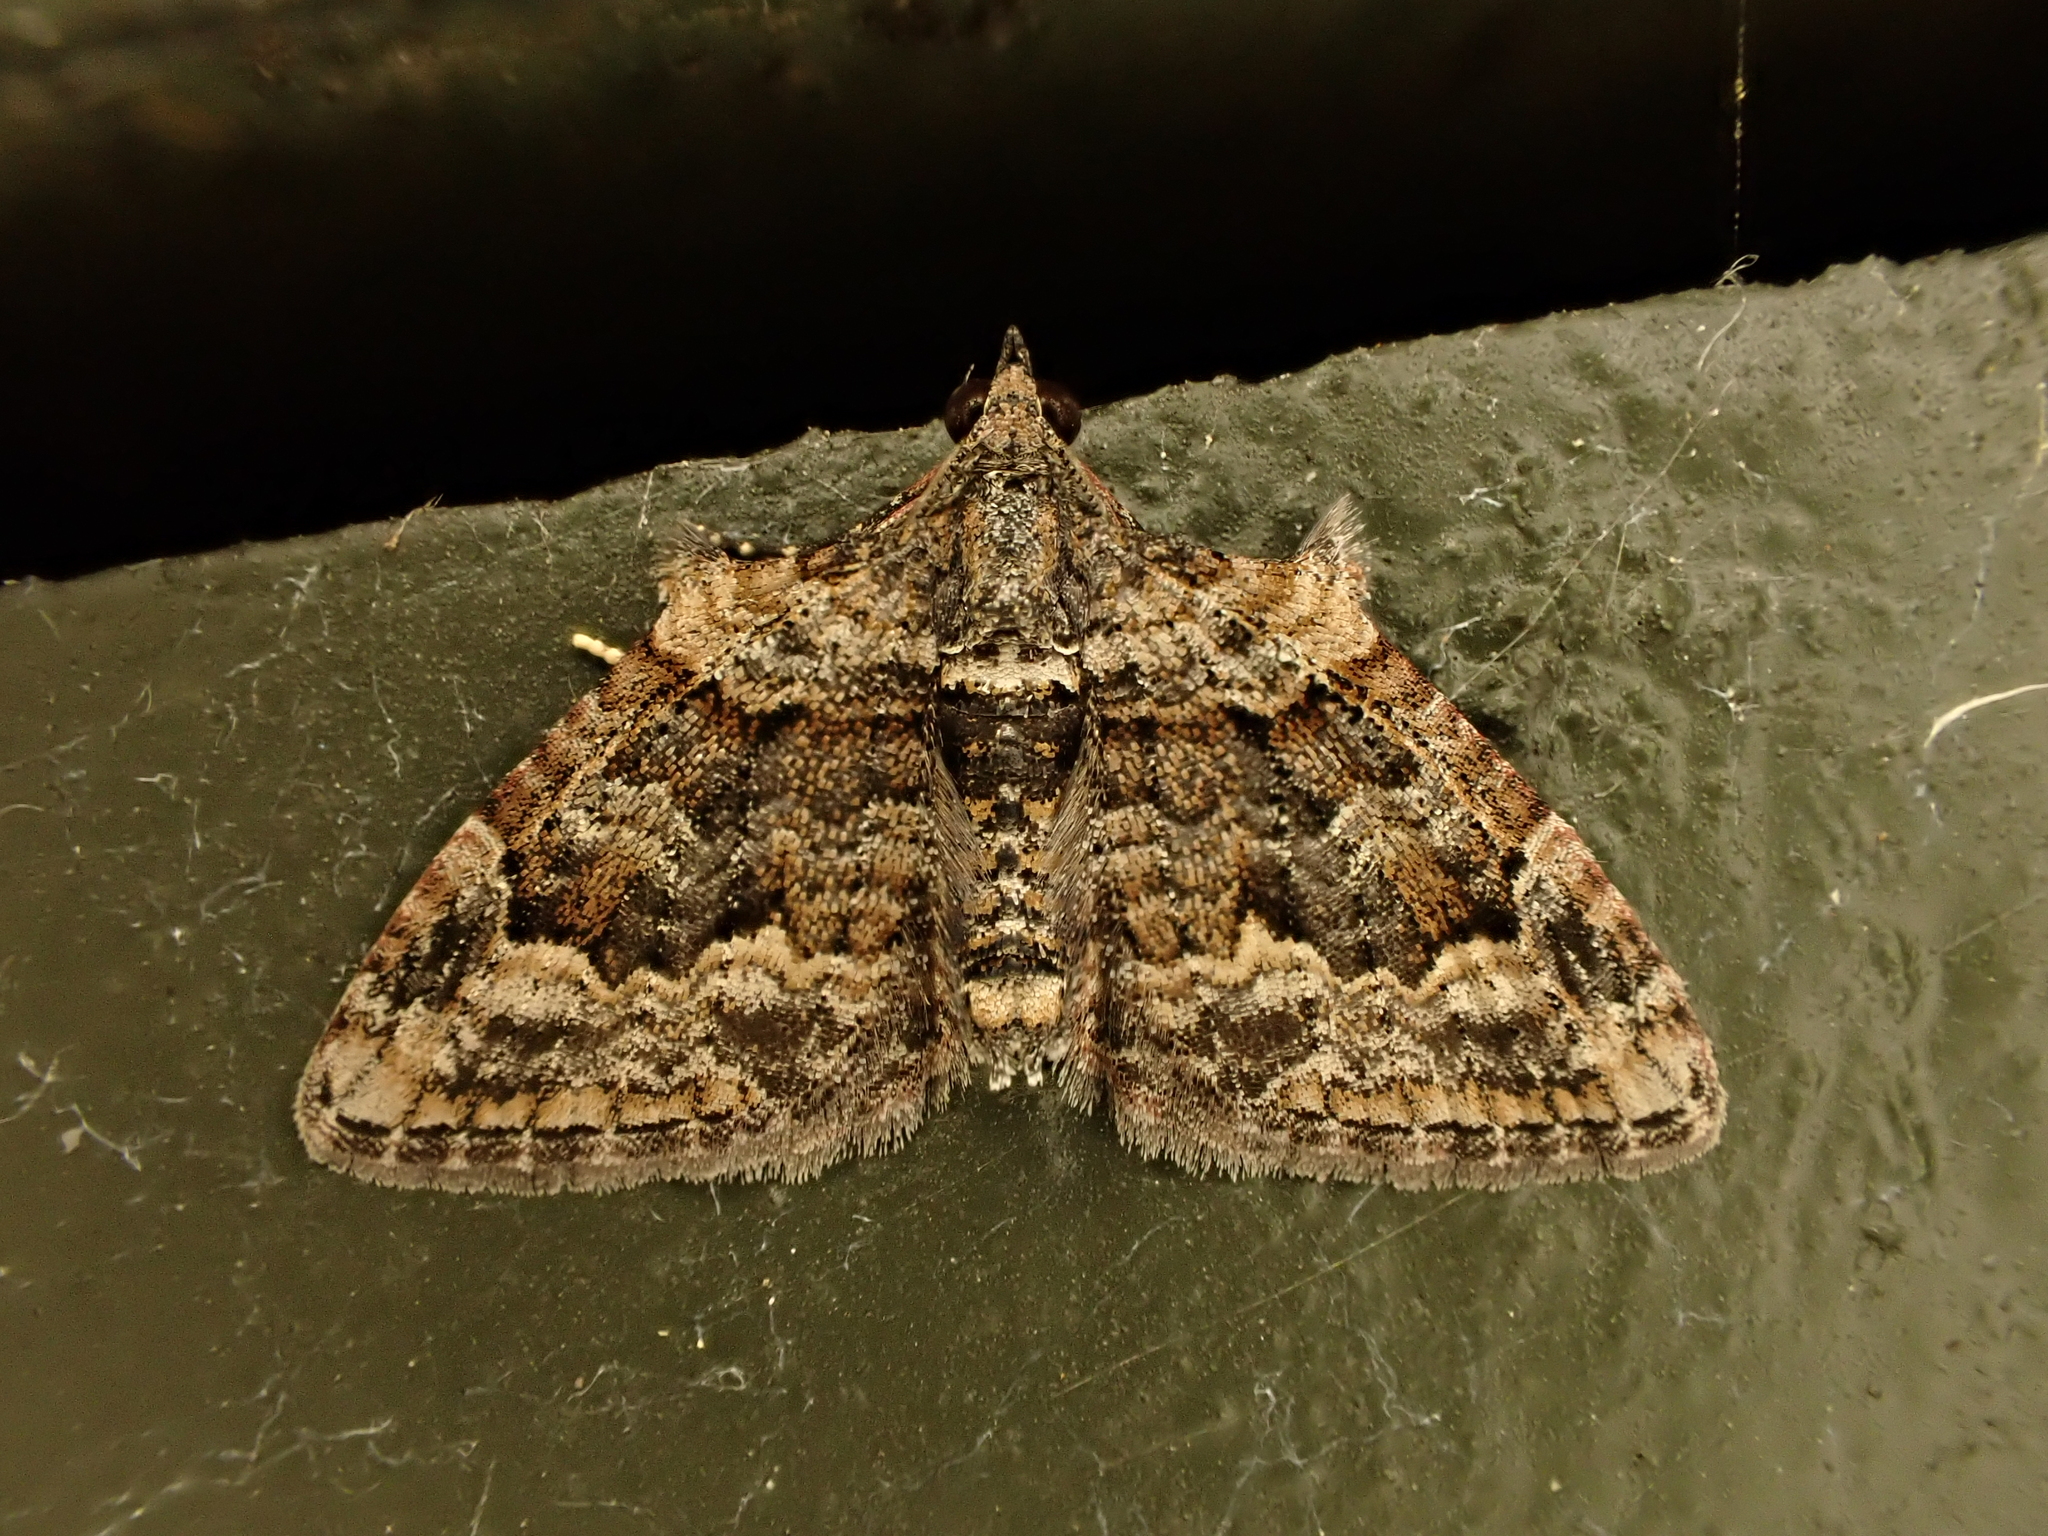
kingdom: Animalia
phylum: Arthropoda
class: Insecta
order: Lepidoptera
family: Geometridae
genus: Phrissogonus
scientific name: Phrissogonus laticostata
